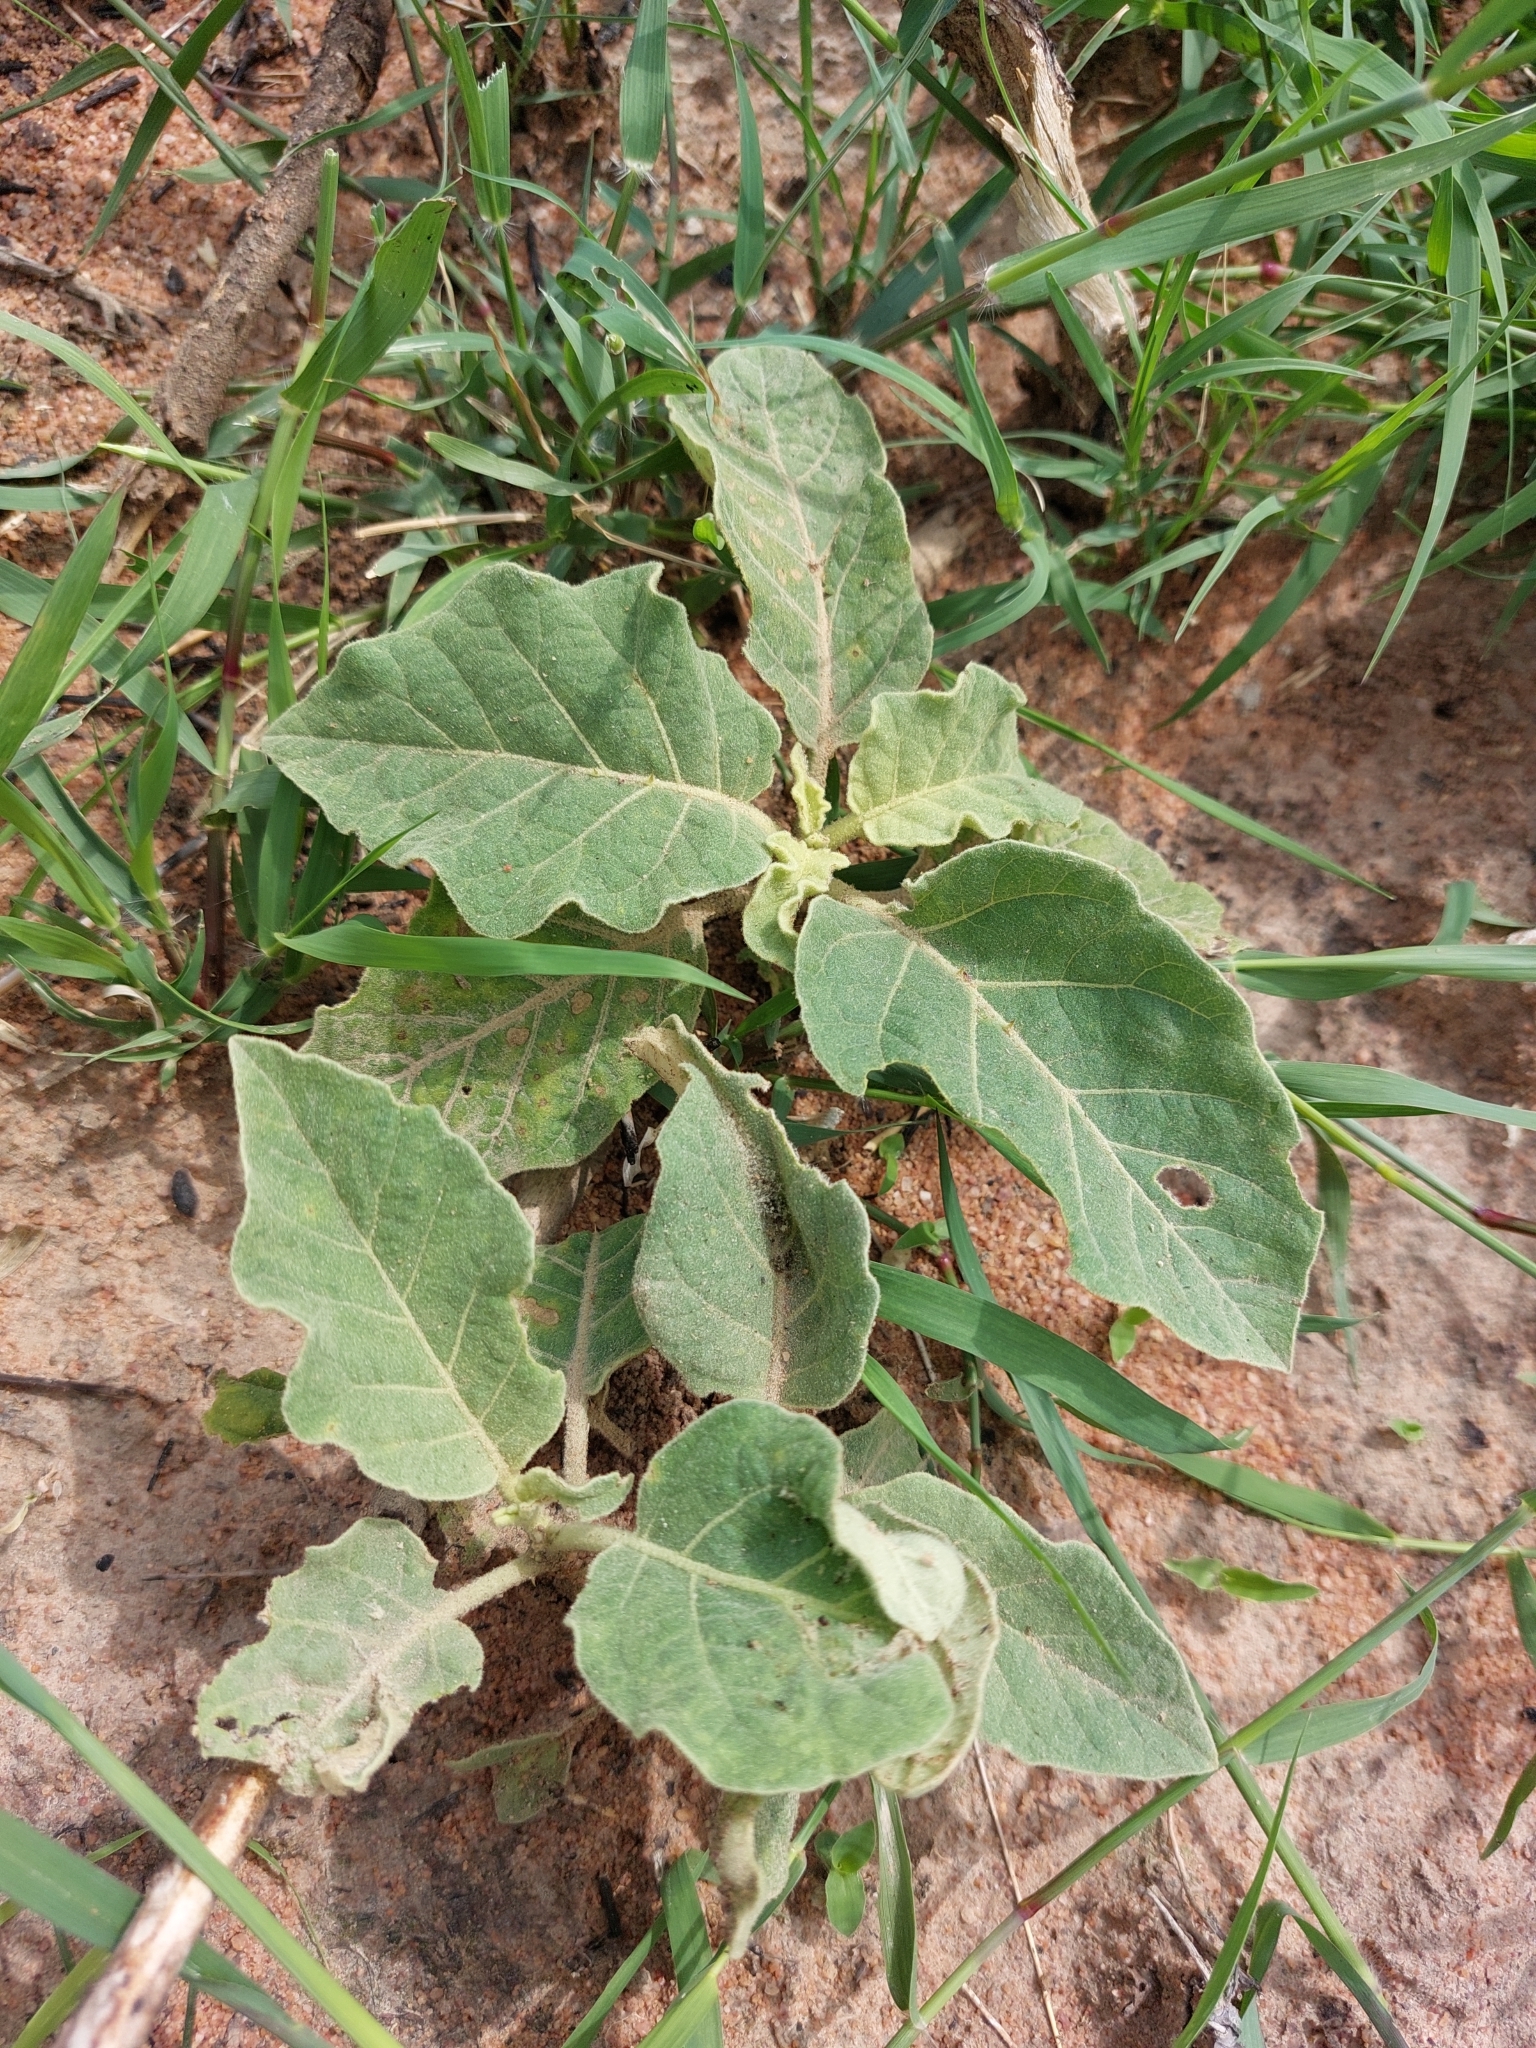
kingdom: Plantae
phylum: Tracheophyta
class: Magnoliopsida
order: Solanales
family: Solanaceae
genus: Solanum
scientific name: Solanum lichtensteinii
